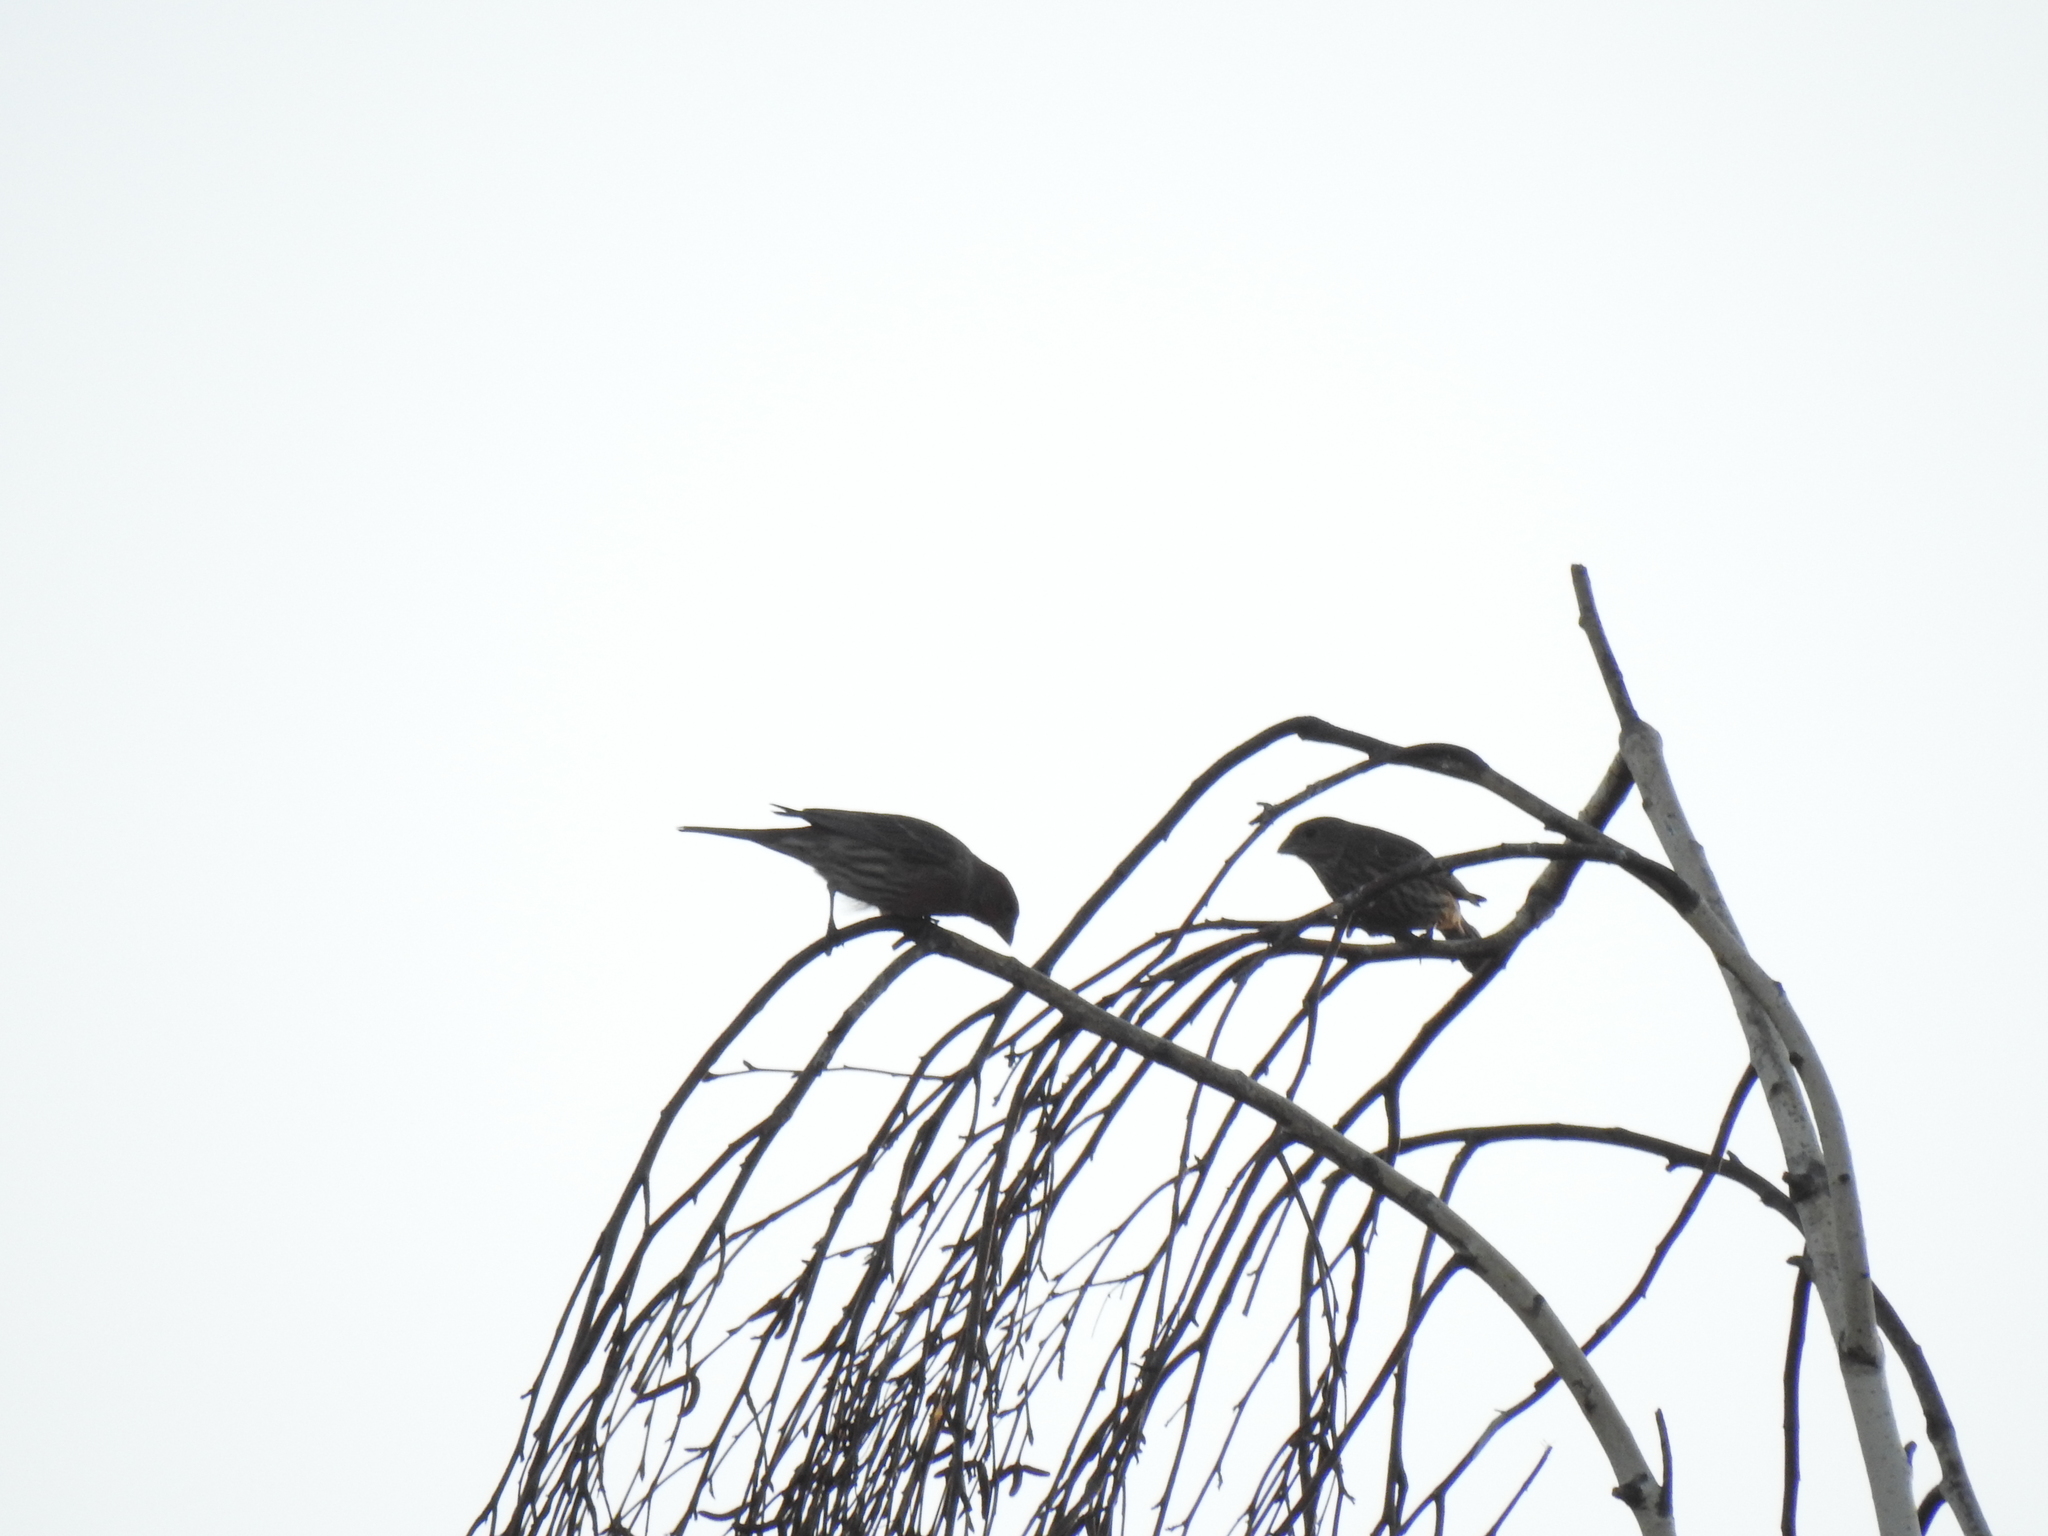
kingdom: Animalia
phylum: Chordata
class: Aves
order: Passeriformes
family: Fringillidae
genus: Haemorhous
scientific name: Haemorhous mexicanus
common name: House finch
